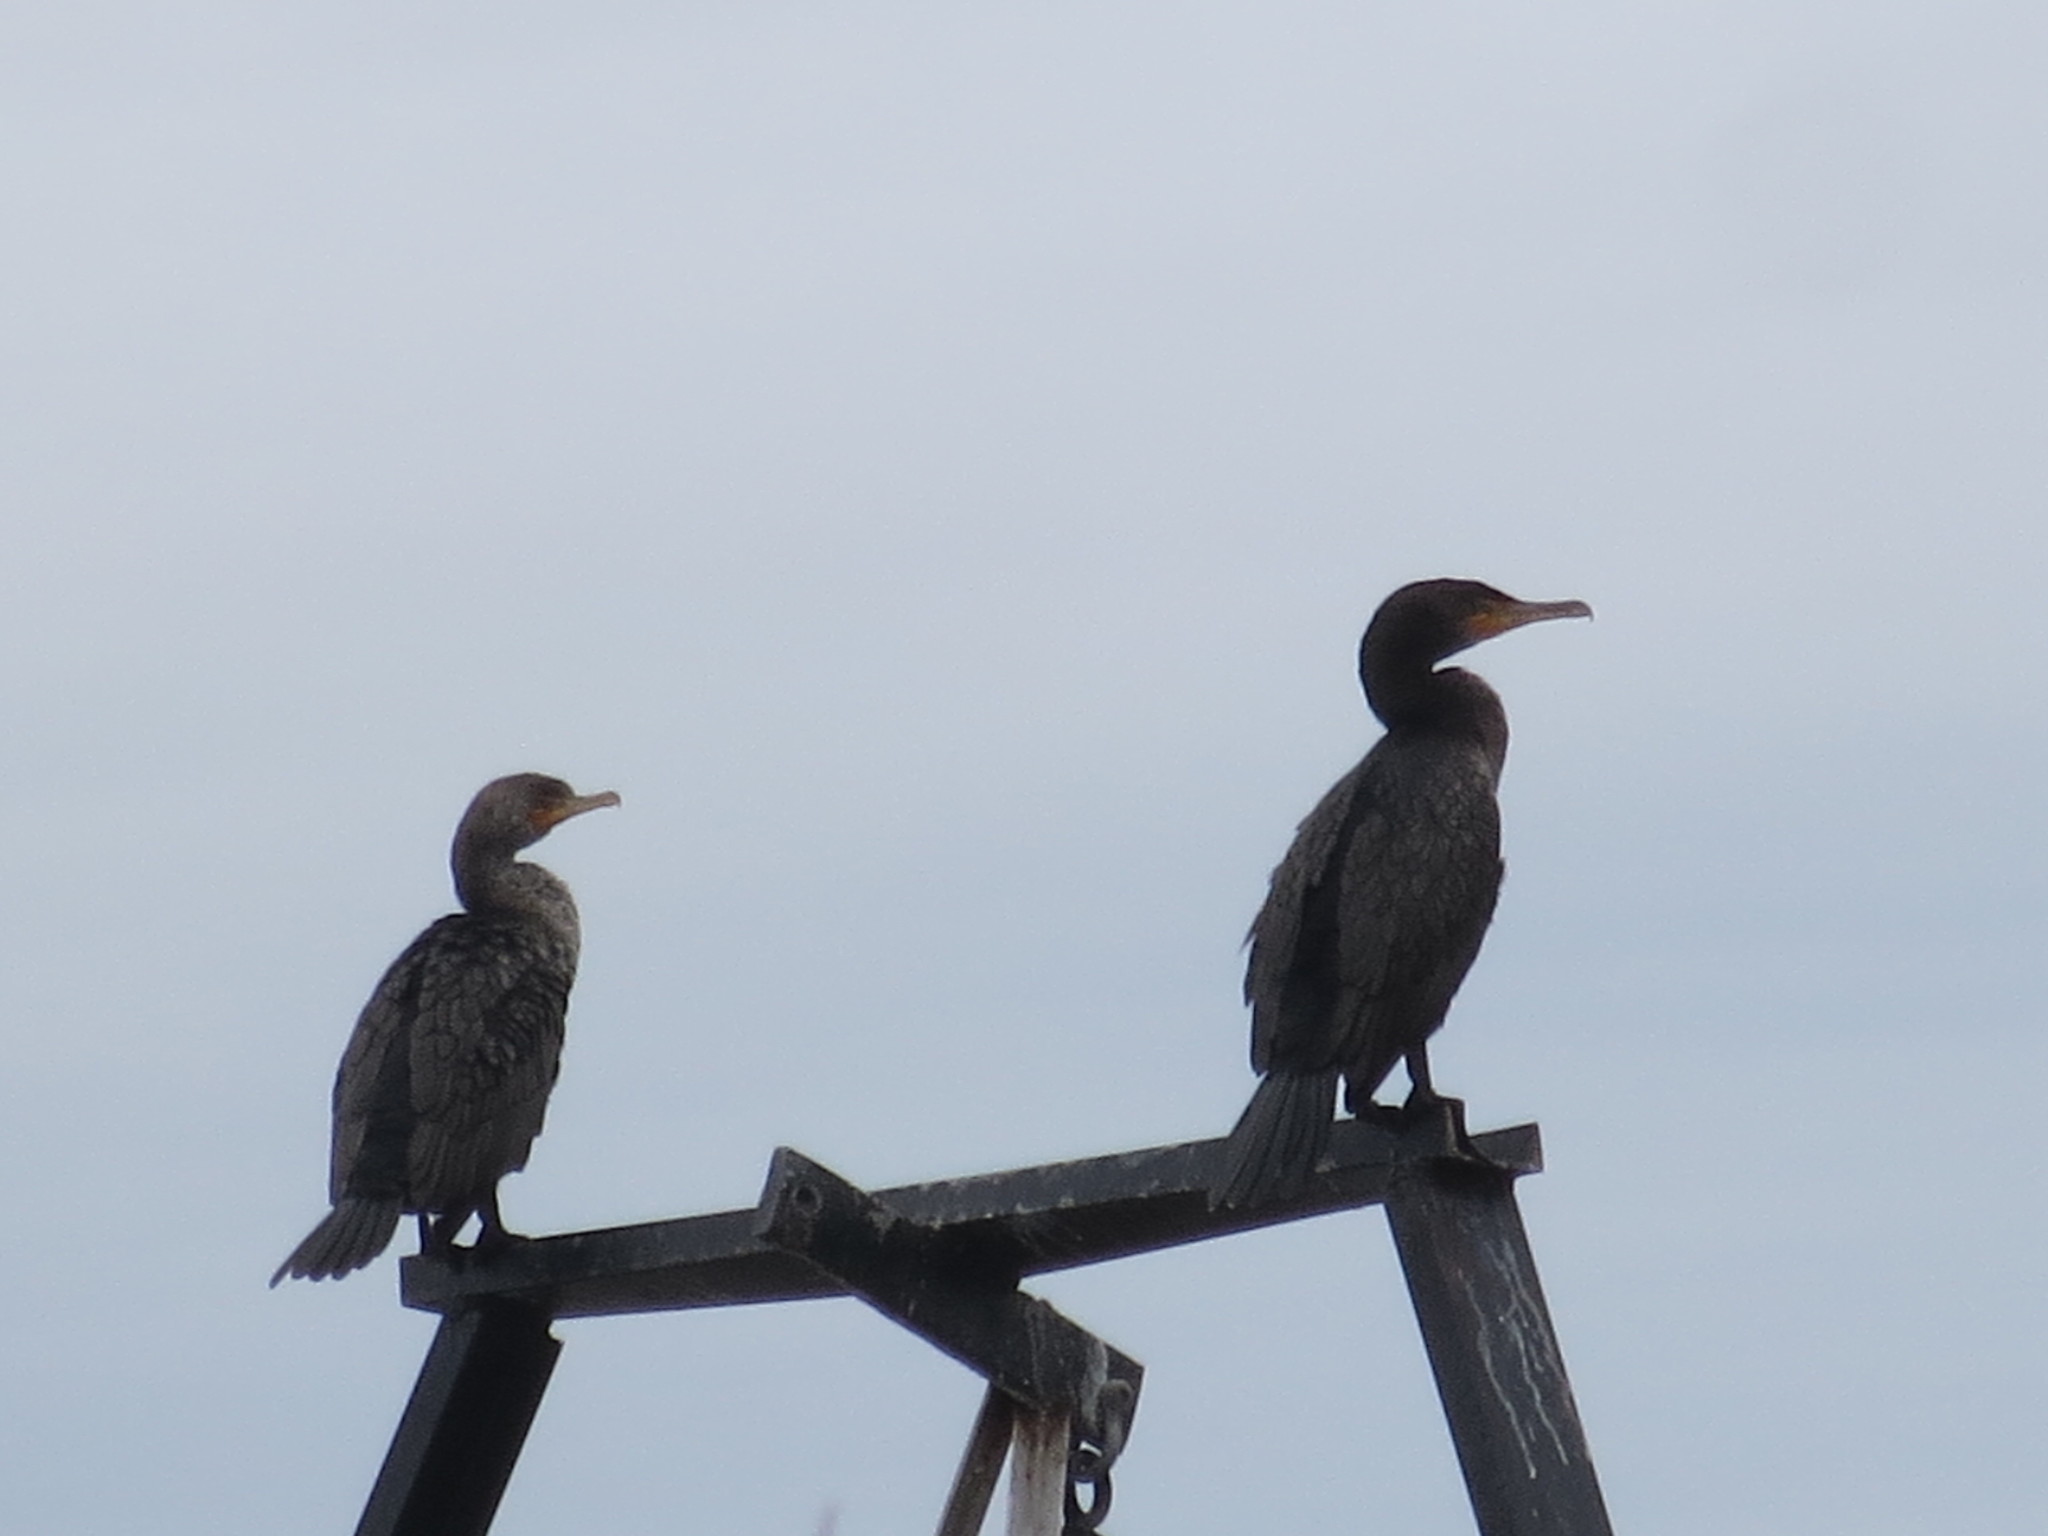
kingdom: Animalia
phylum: Chordata
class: Aves
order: Suliformes
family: Phalacrocoracidae
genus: Phalacrocorax
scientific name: Phalacrocorax auritus
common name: Double-crested cormorant
